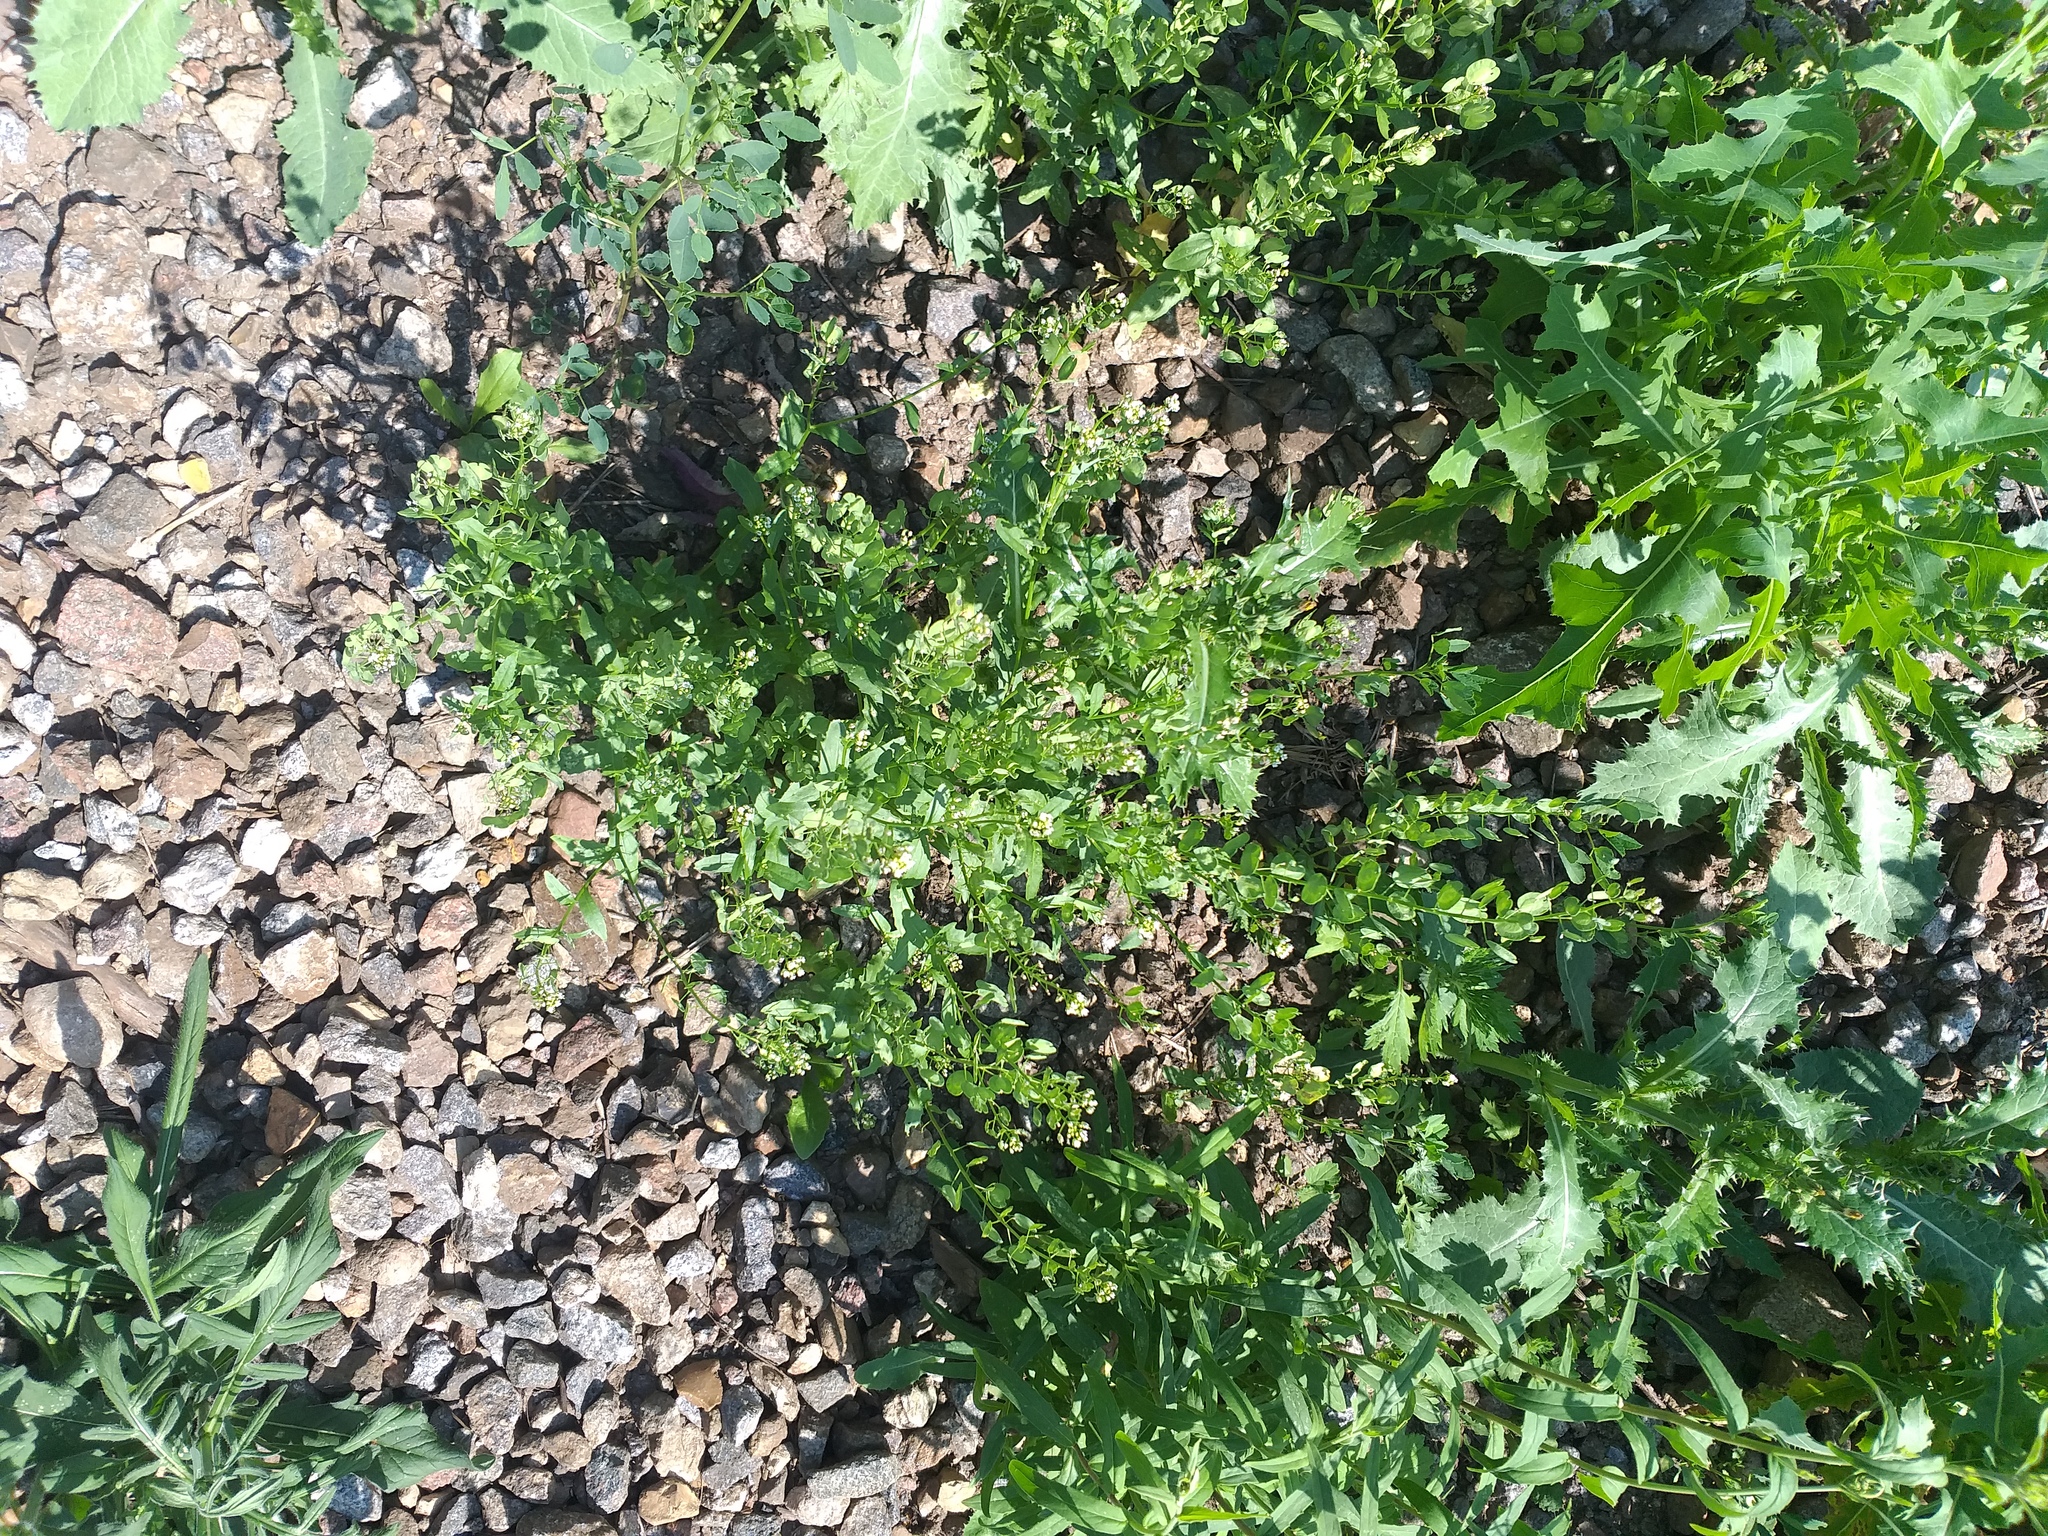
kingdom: Plantae
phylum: Tracheophyta
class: Magnoliopsida
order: Brassicales
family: Brassicaceae
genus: Thlaspi
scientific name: Thlaspi arvense
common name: Field pennycress
